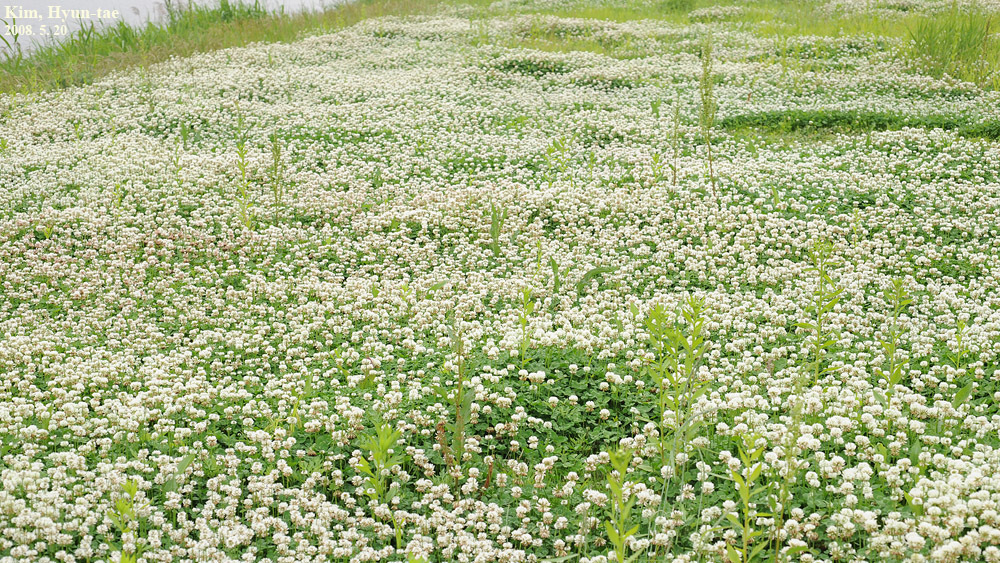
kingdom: Plantae
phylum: Tracheophyta
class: Magnoliopsida
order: Fabales
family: Fabaceae
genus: Trifolium
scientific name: Trifolium repens
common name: White clover
